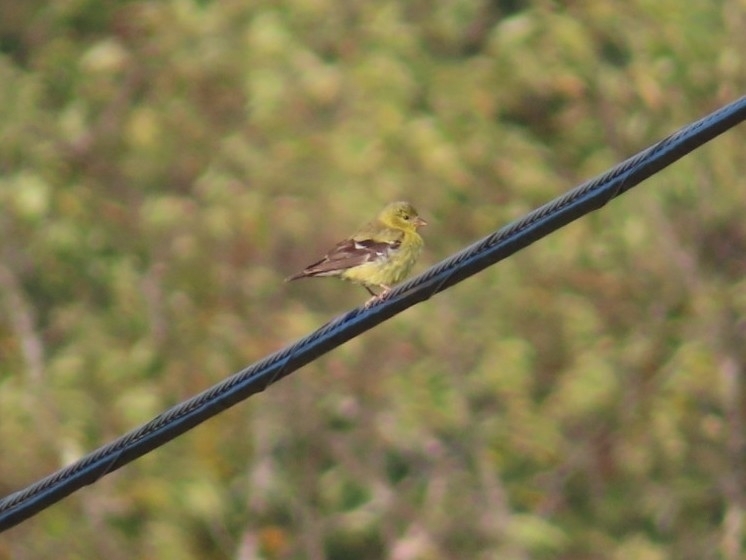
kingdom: Animalia
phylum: Chordata
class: Aves
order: Passeriformes
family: Fringillidae
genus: Spinus
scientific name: Spinus tristis
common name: American goldfinch
